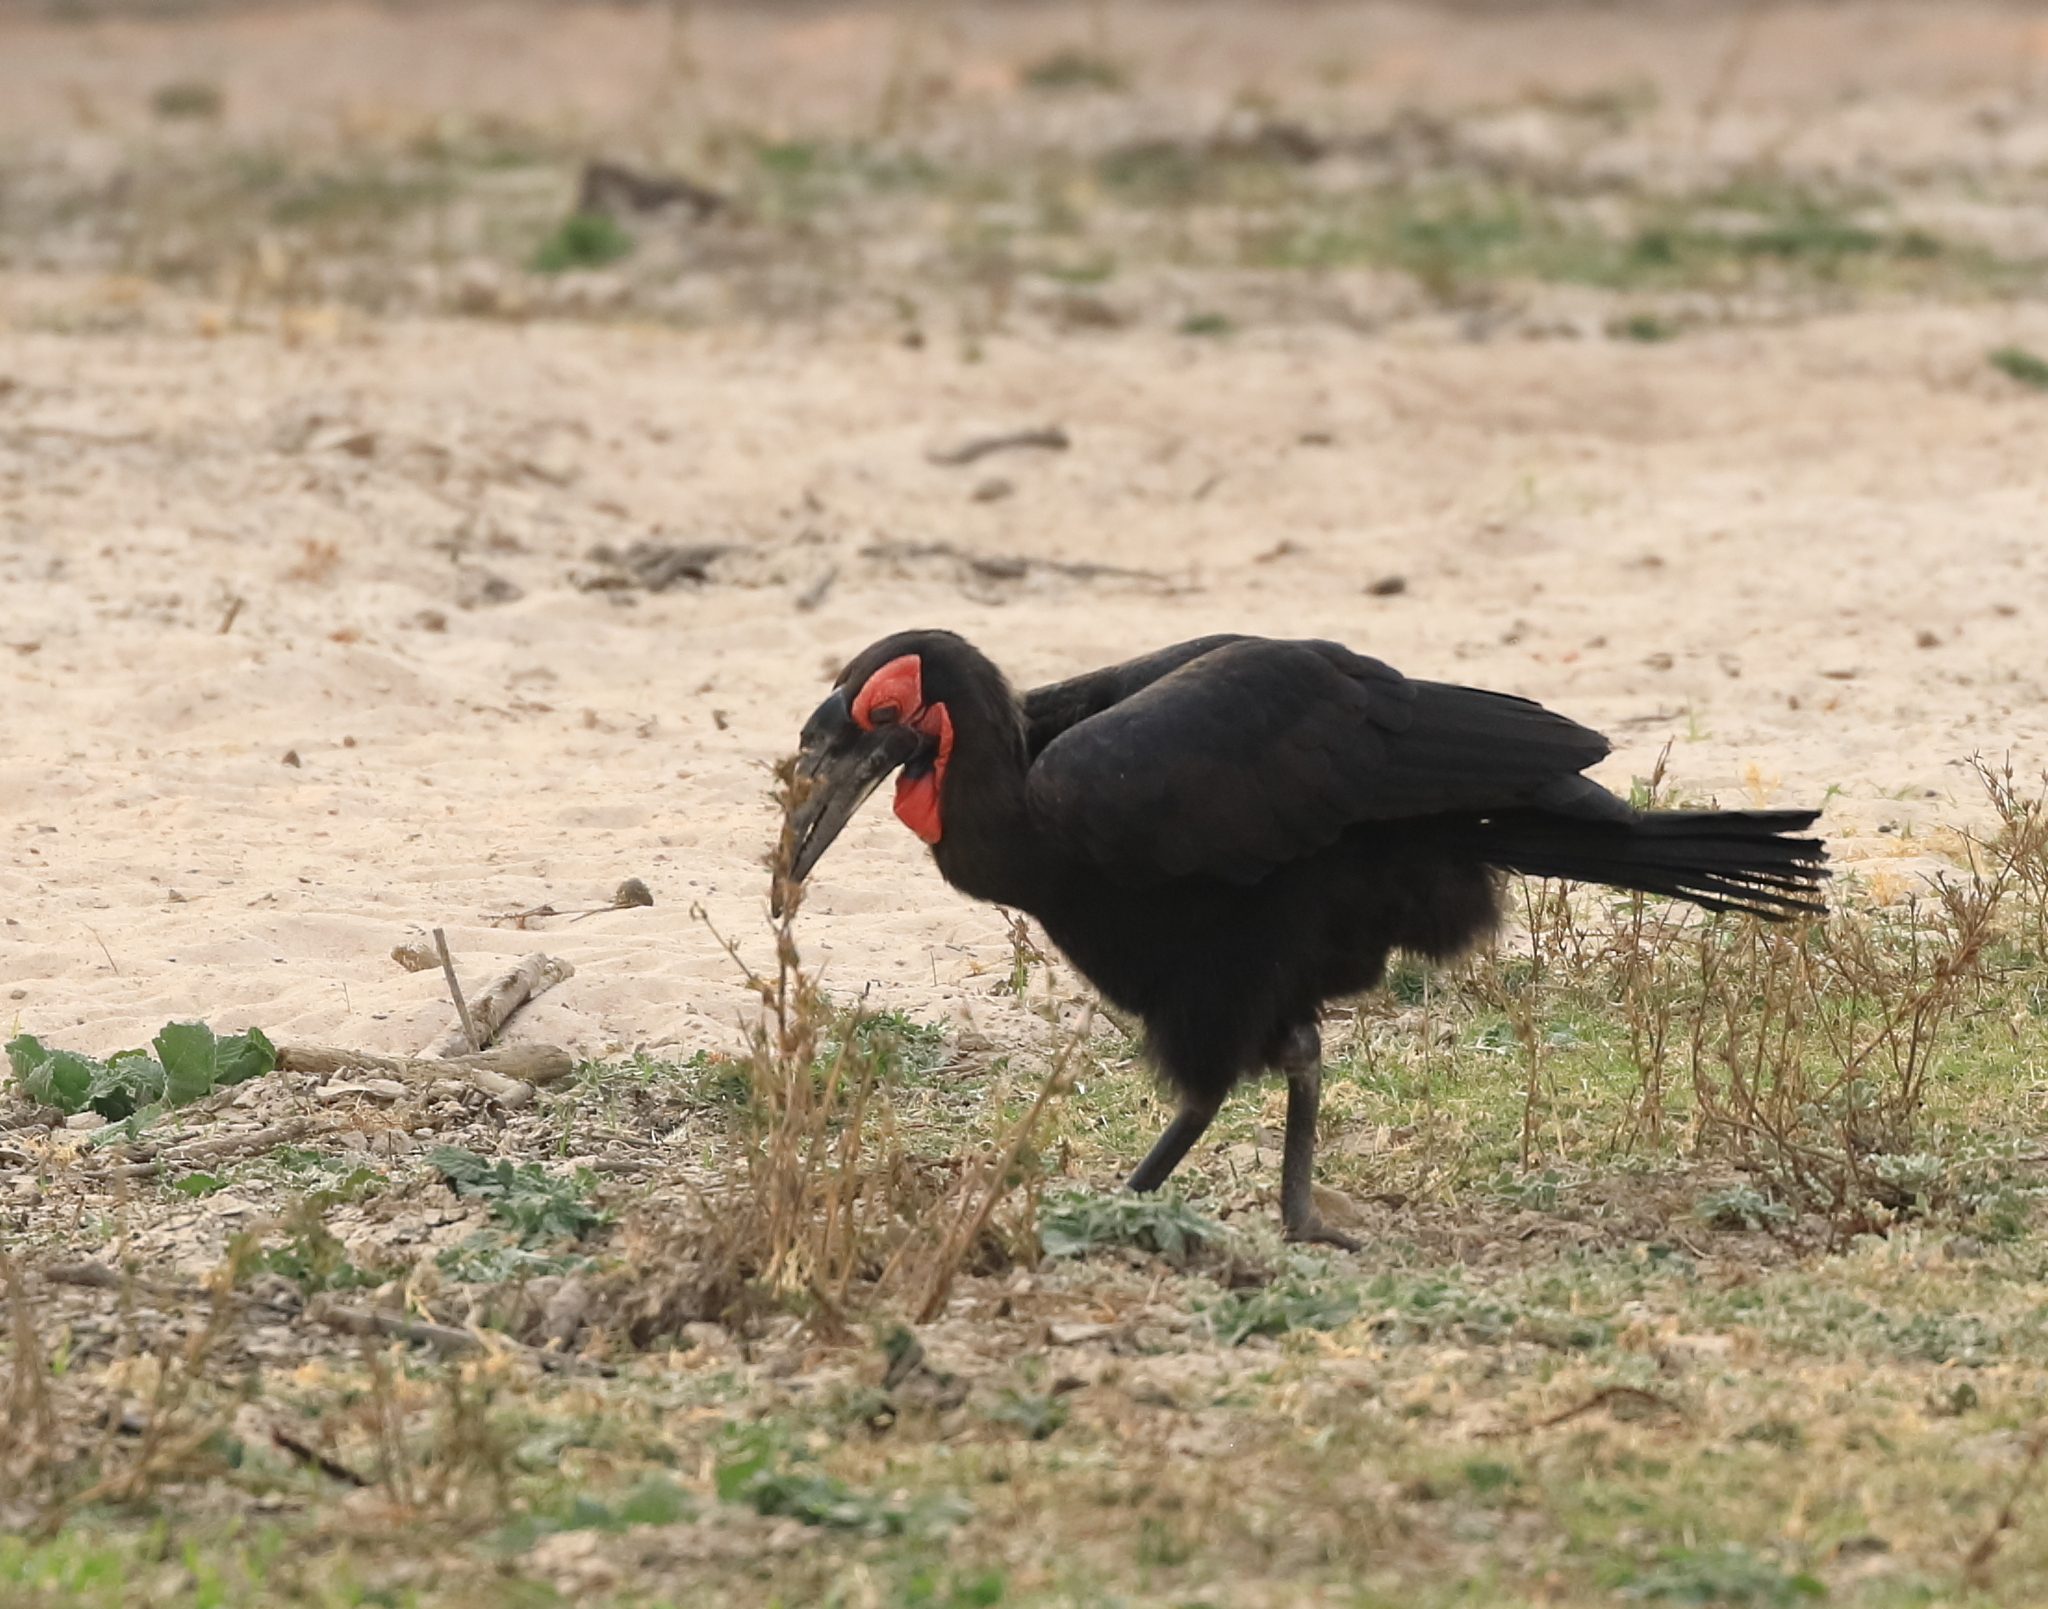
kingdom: Animalia
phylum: Chordata
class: Aves
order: Bucerotiformes
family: Bucorvidae
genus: Bucorvus
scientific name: Bucorvus leadbeateri
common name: Southern ground-hornbill
